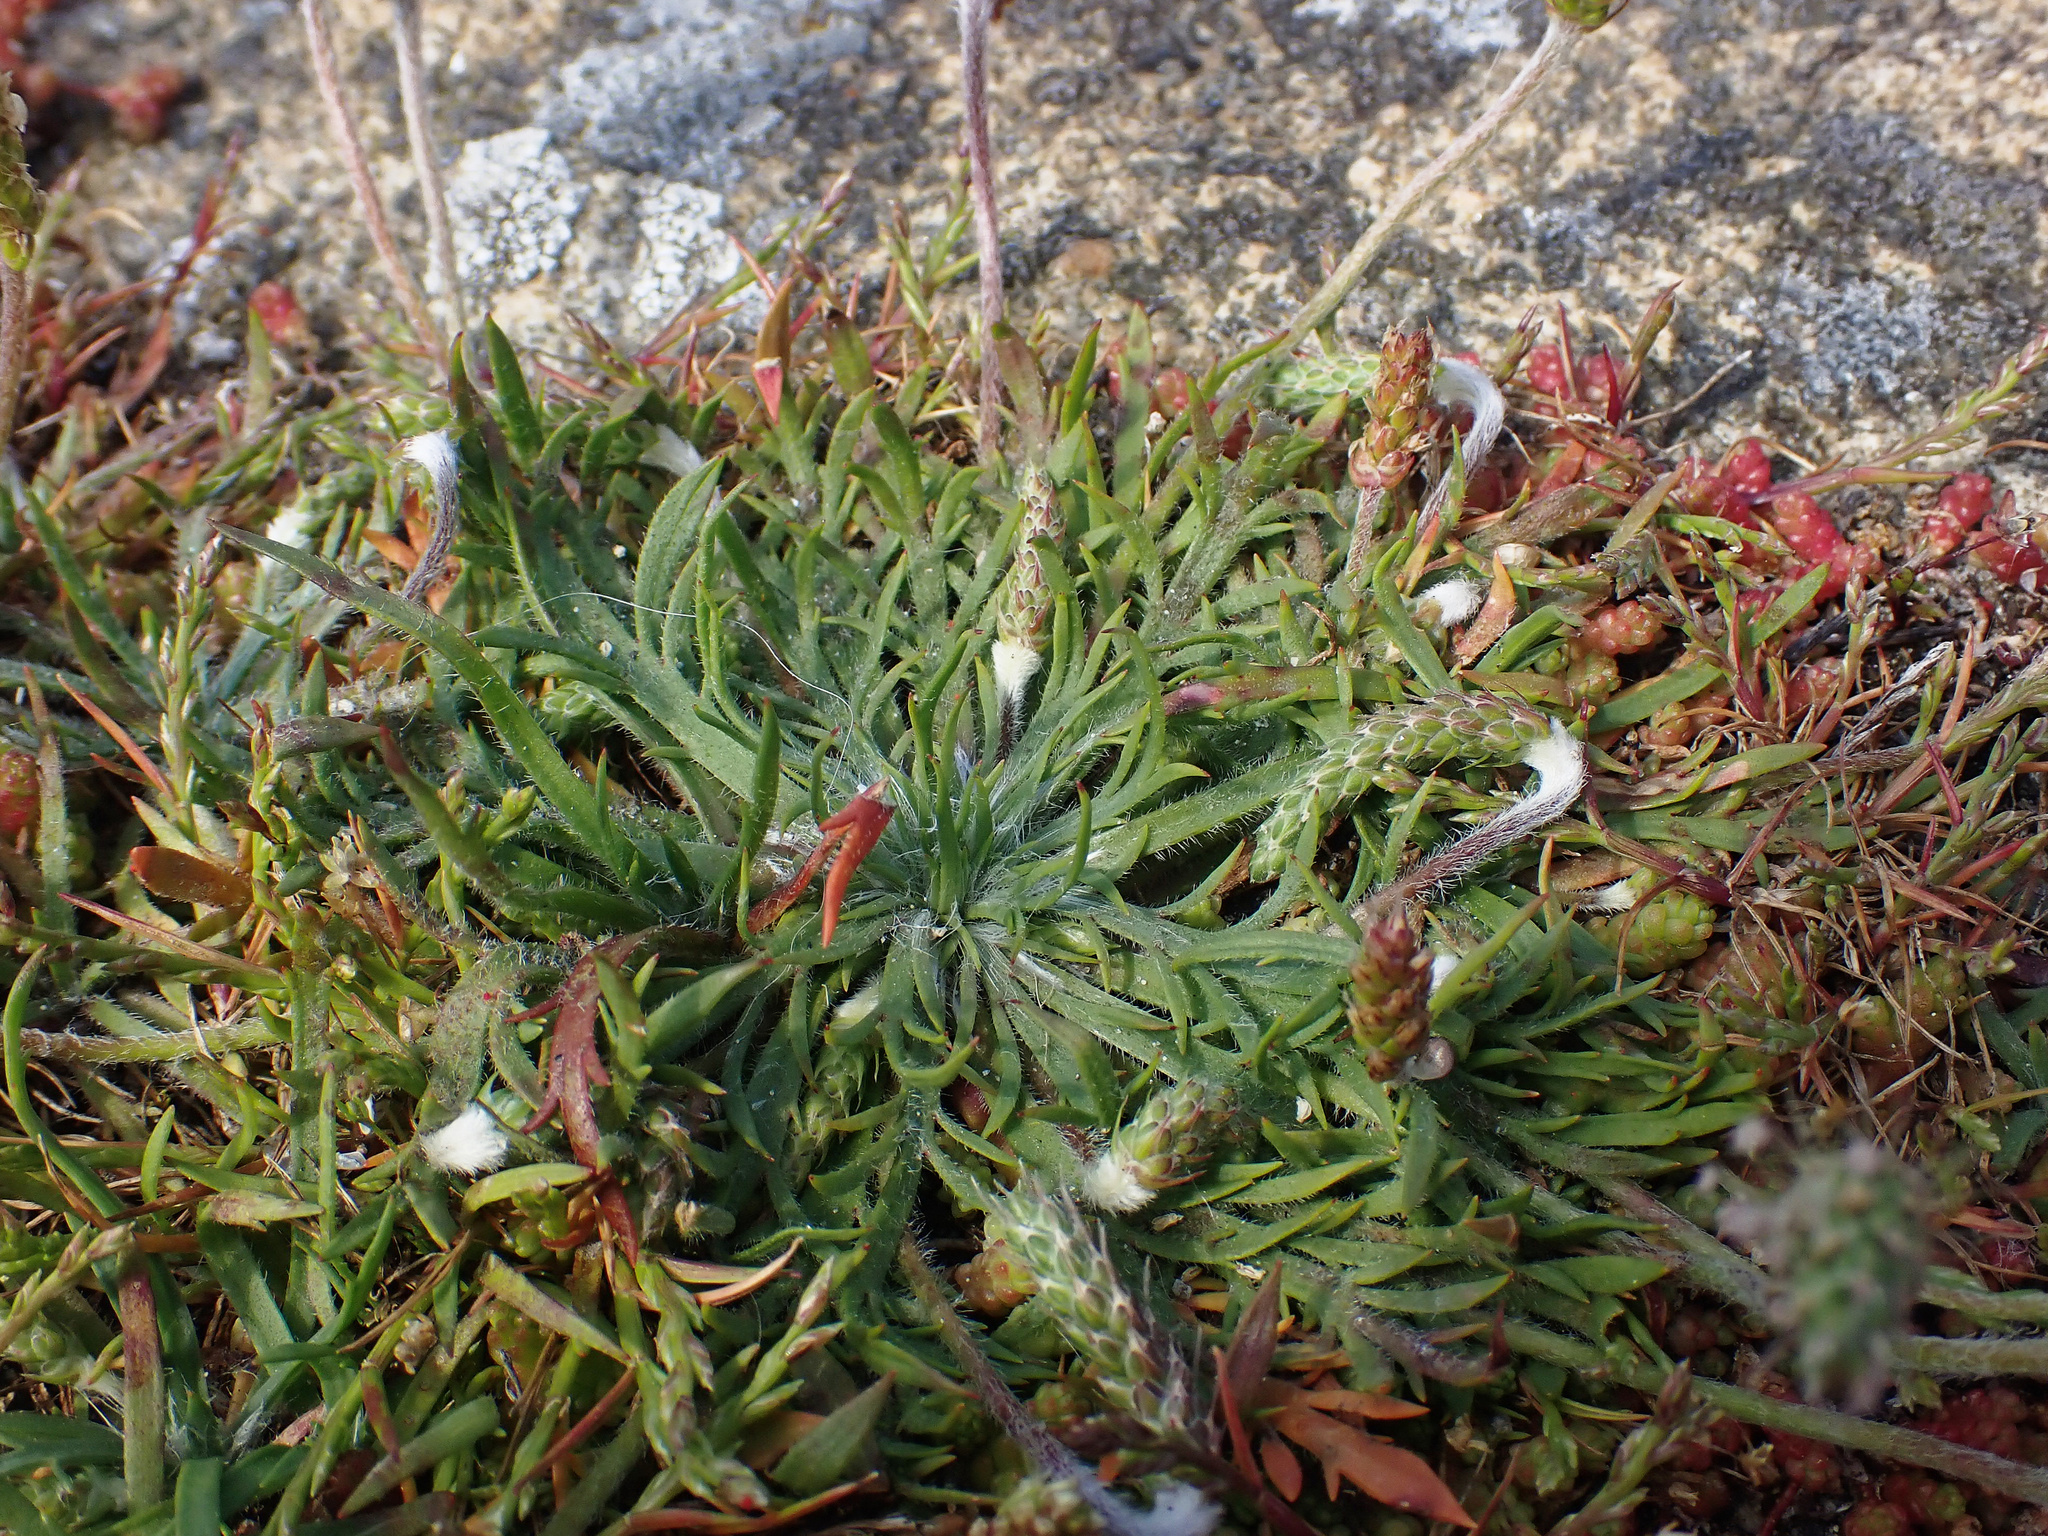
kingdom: Plantae
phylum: Tracheophyta
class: Magnoliopsida
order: Lamiales
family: Plantaginaceae
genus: Plantago
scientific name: Plantago coronopus
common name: Buck's-horn plantain
